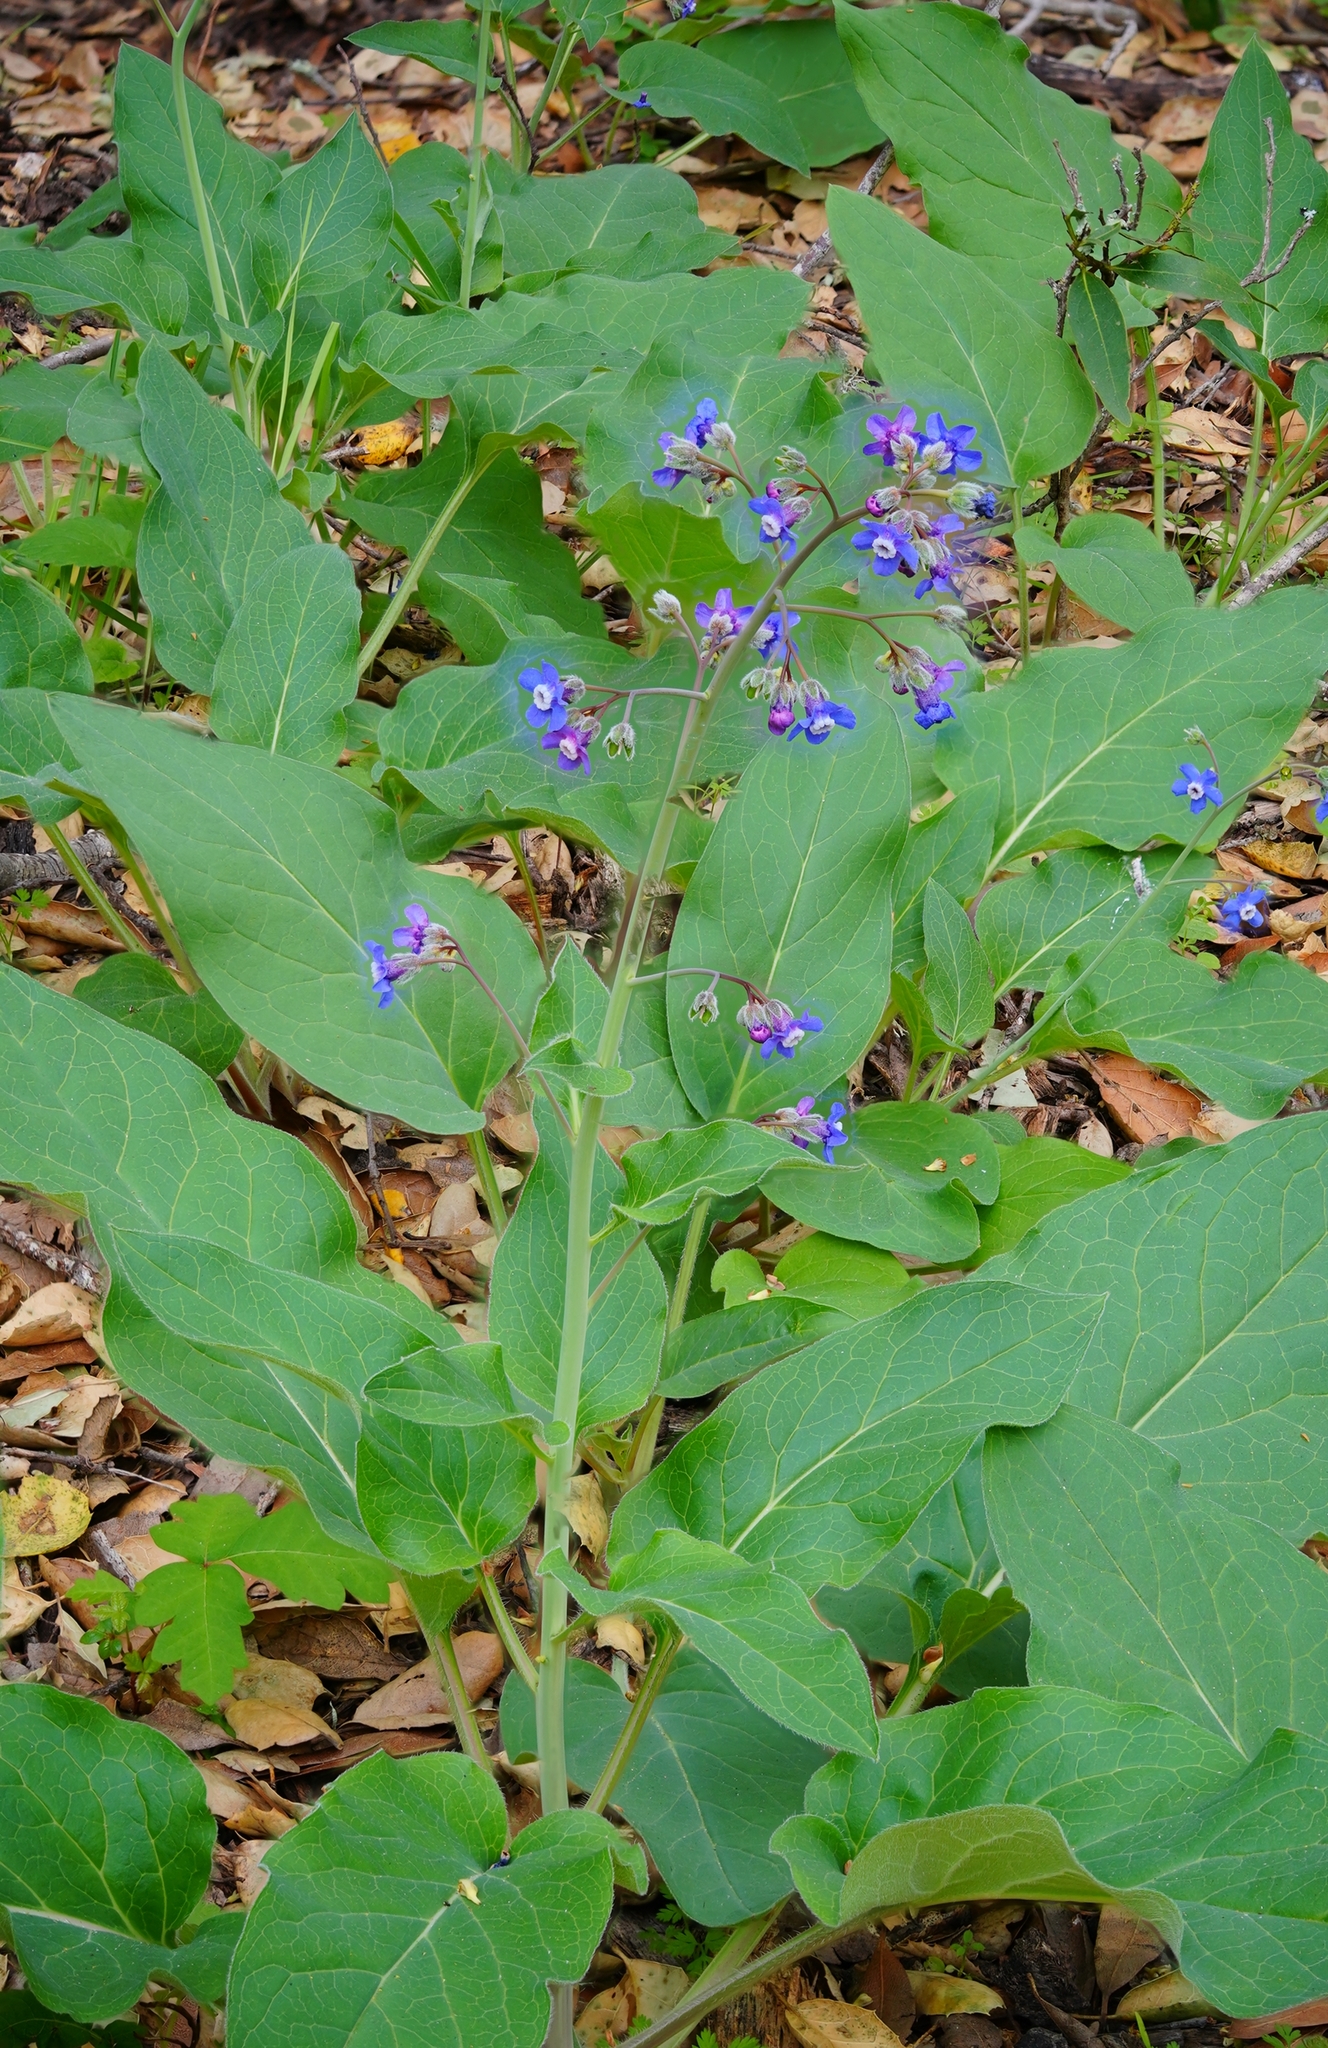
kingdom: Plantae
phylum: Tracheophyta
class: Magnoliopsida
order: Boraginales
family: Boraginaceae
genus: Adelinia
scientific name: Adelinia grande
